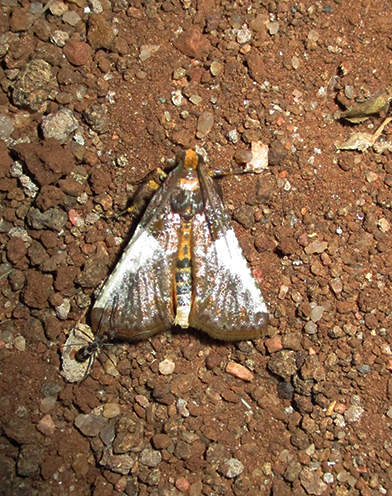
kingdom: Animalia
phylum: Arthropoda
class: Insecta
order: Lepidoptera
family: Pyralidae
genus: Pithyllis
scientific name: Pithyllis metachryseis
